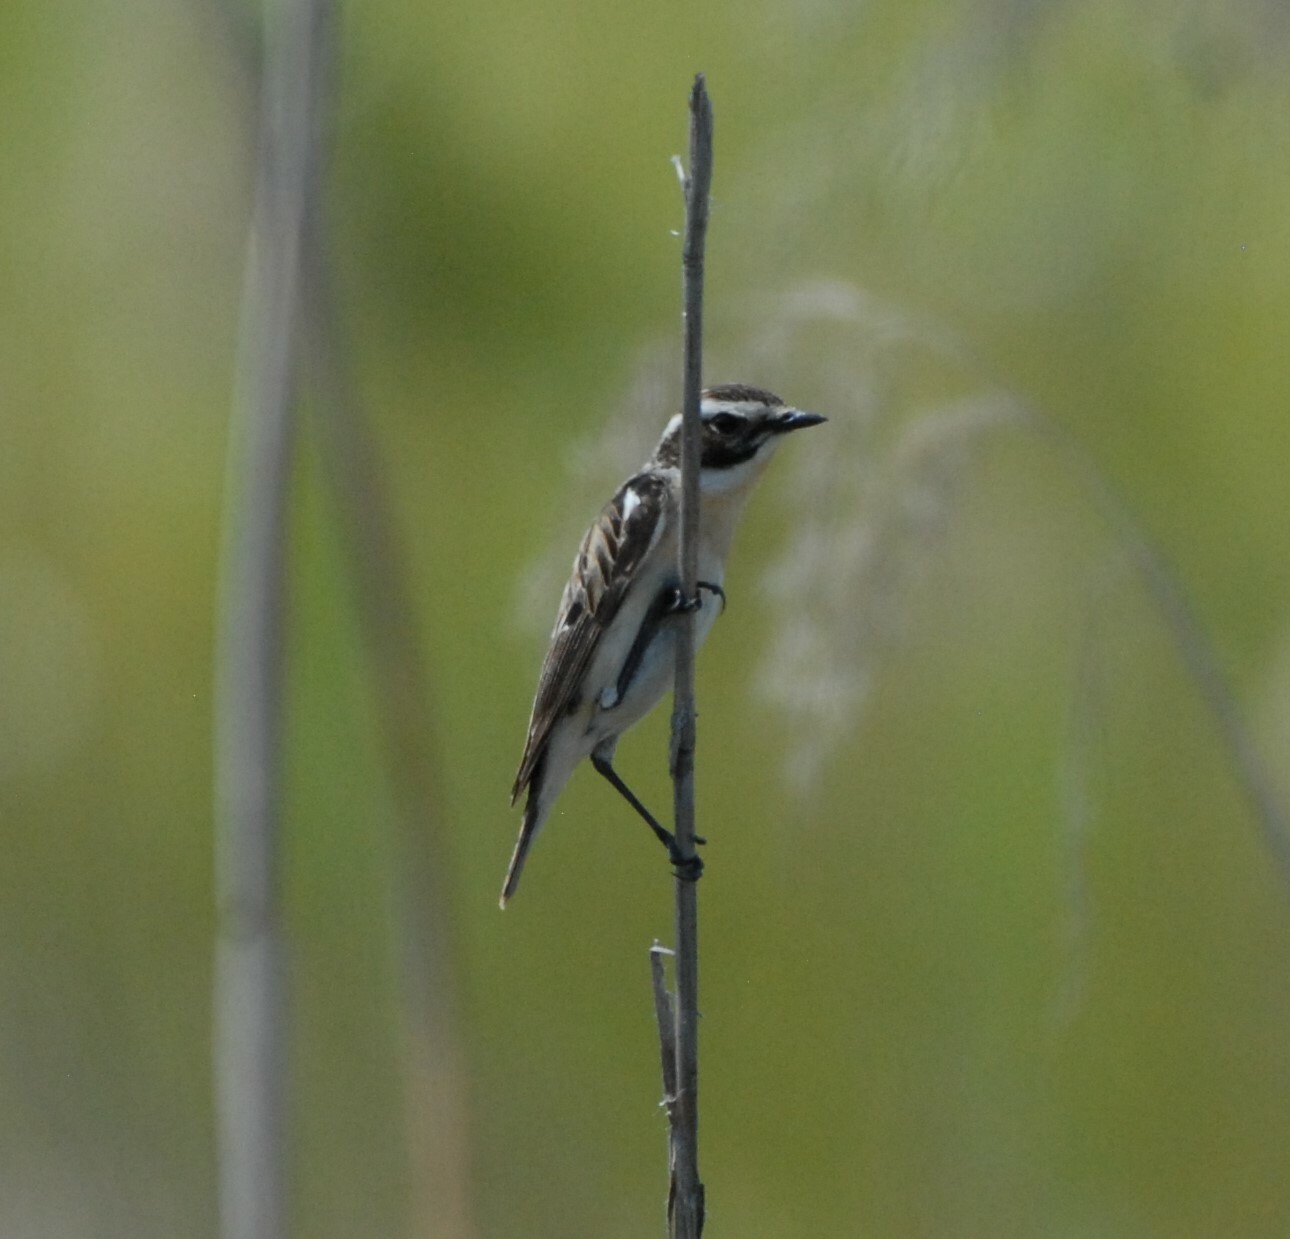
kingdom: Animalia
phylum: Chordata
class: Aves
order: Passeriformes
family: Muscicapidae
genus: Saxicola
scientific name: Saxicola rubetra
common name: Whinchat
